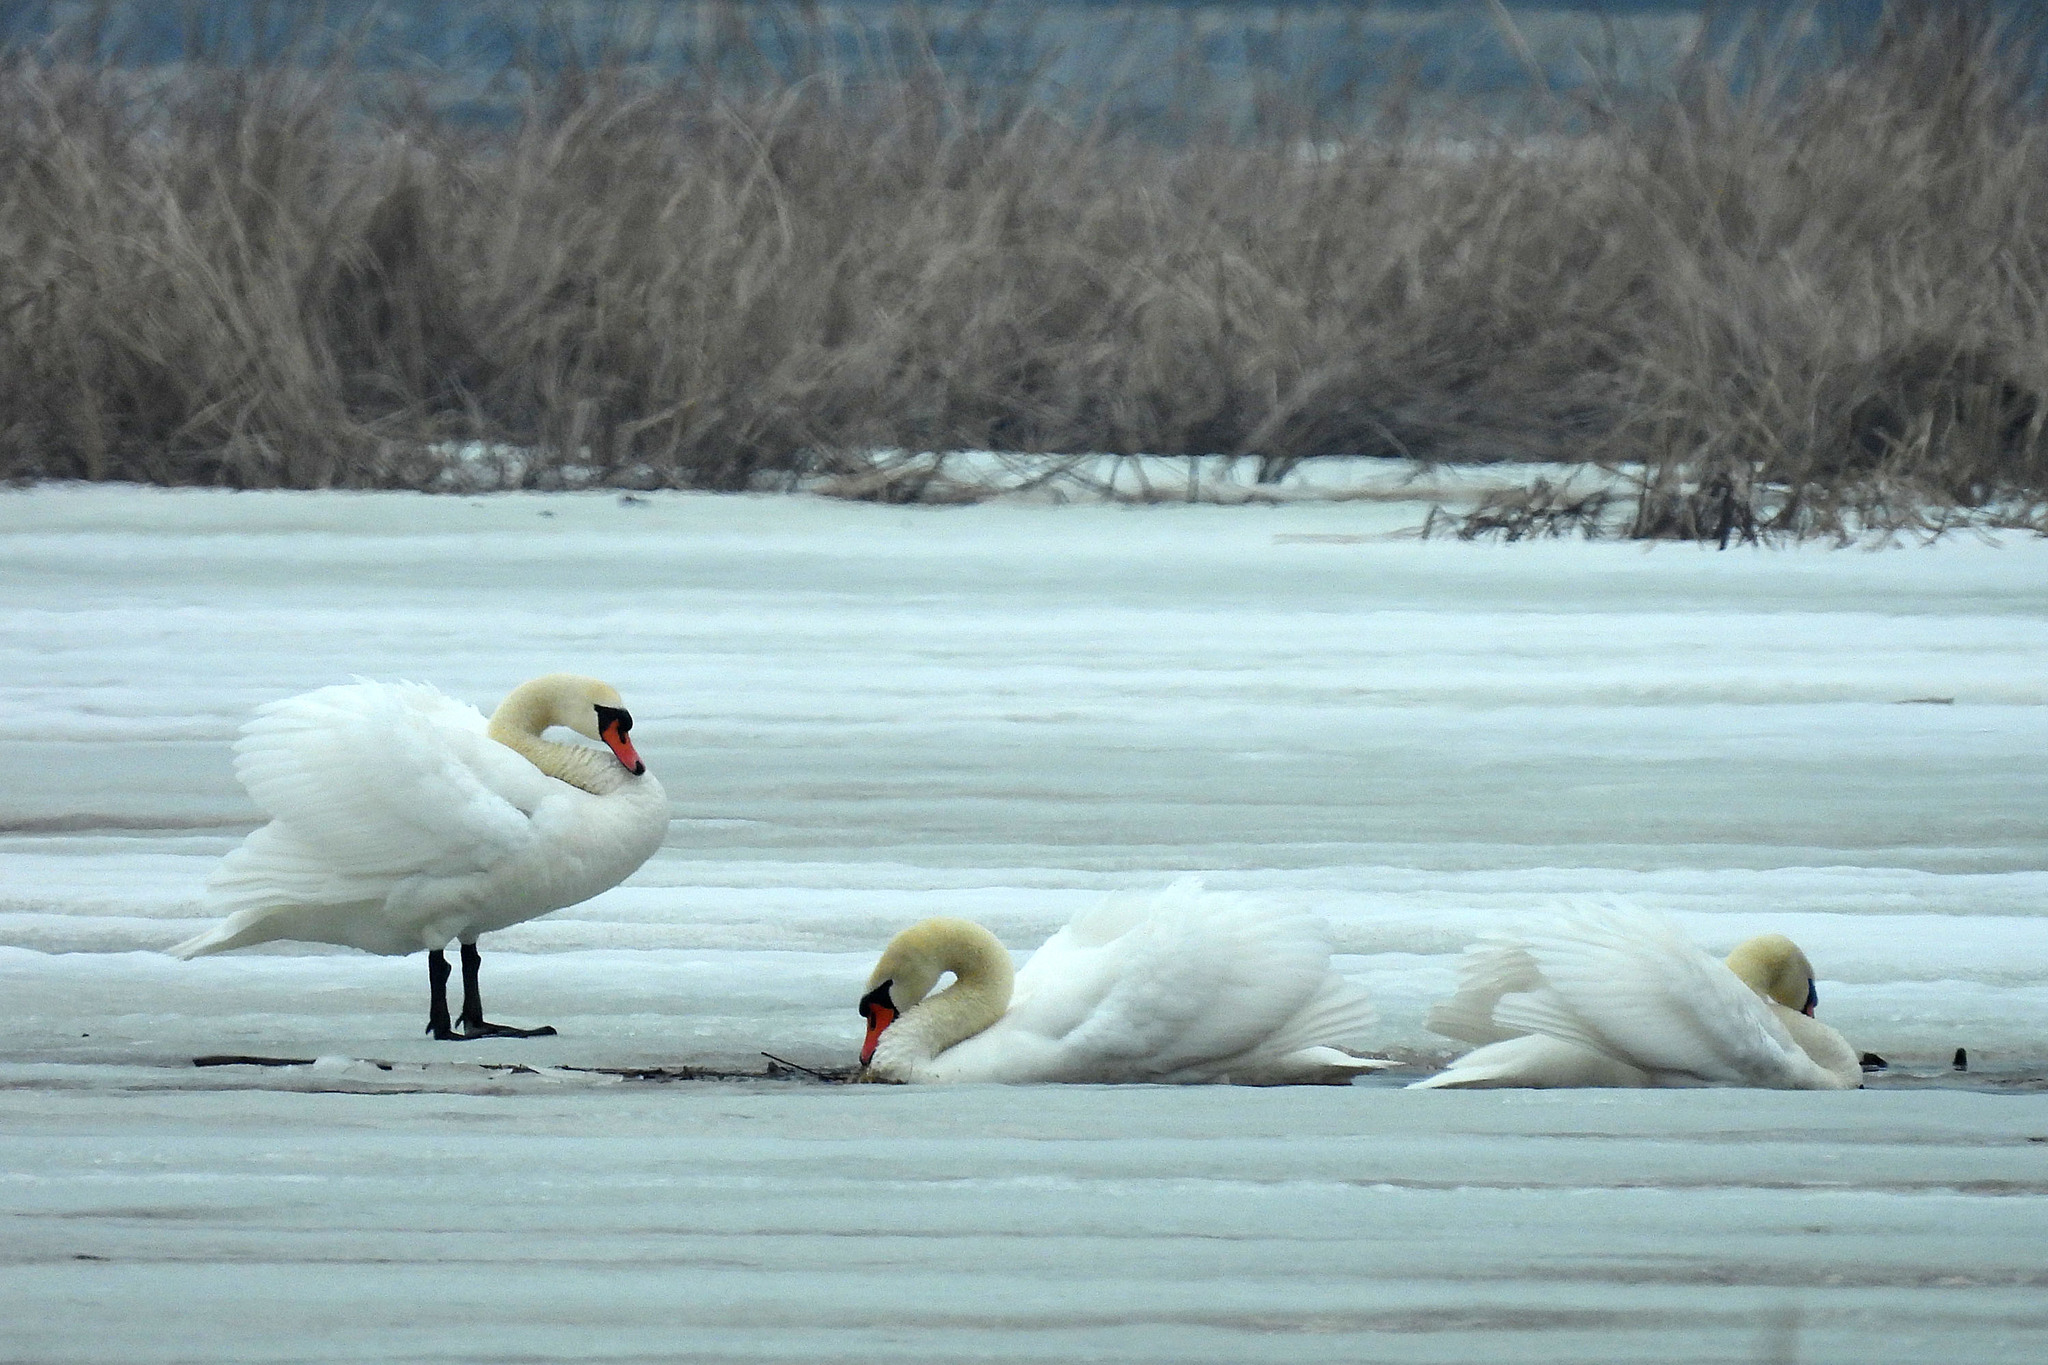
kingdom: Animalia
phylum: Chordata
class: Aves
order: Anseriformes
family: Anatidae
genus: Cygnus
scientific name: Cygnus olor
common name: Mute swan
